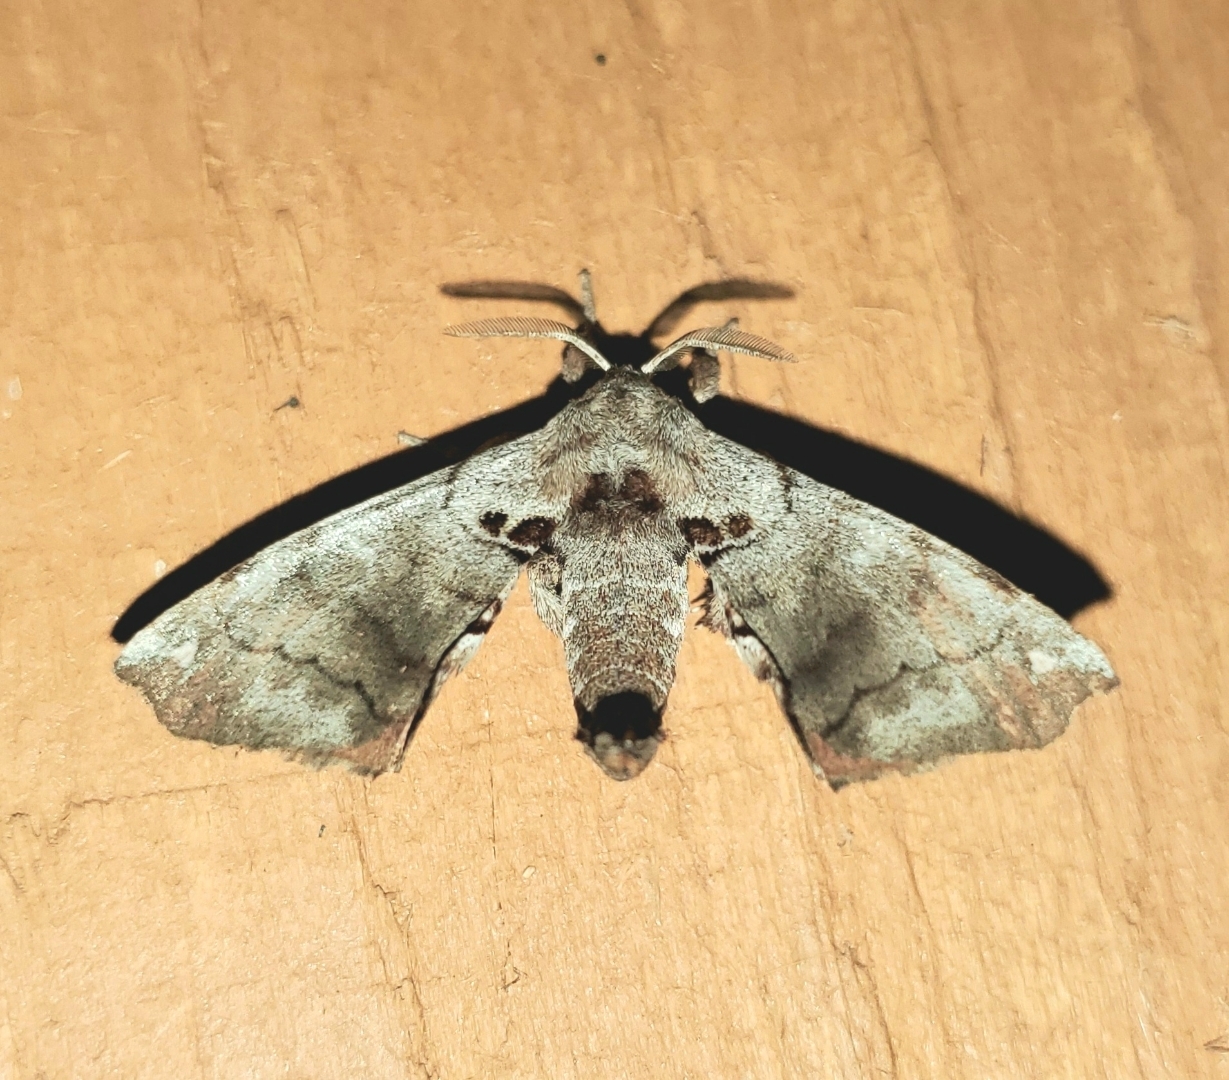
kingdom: Animalia
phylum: Arthropoda
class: Insecta
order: Lepidoptera
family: Apatelodidae
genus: Hygrochroa
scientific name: Hygrochroa Apatelodes torrefacta
